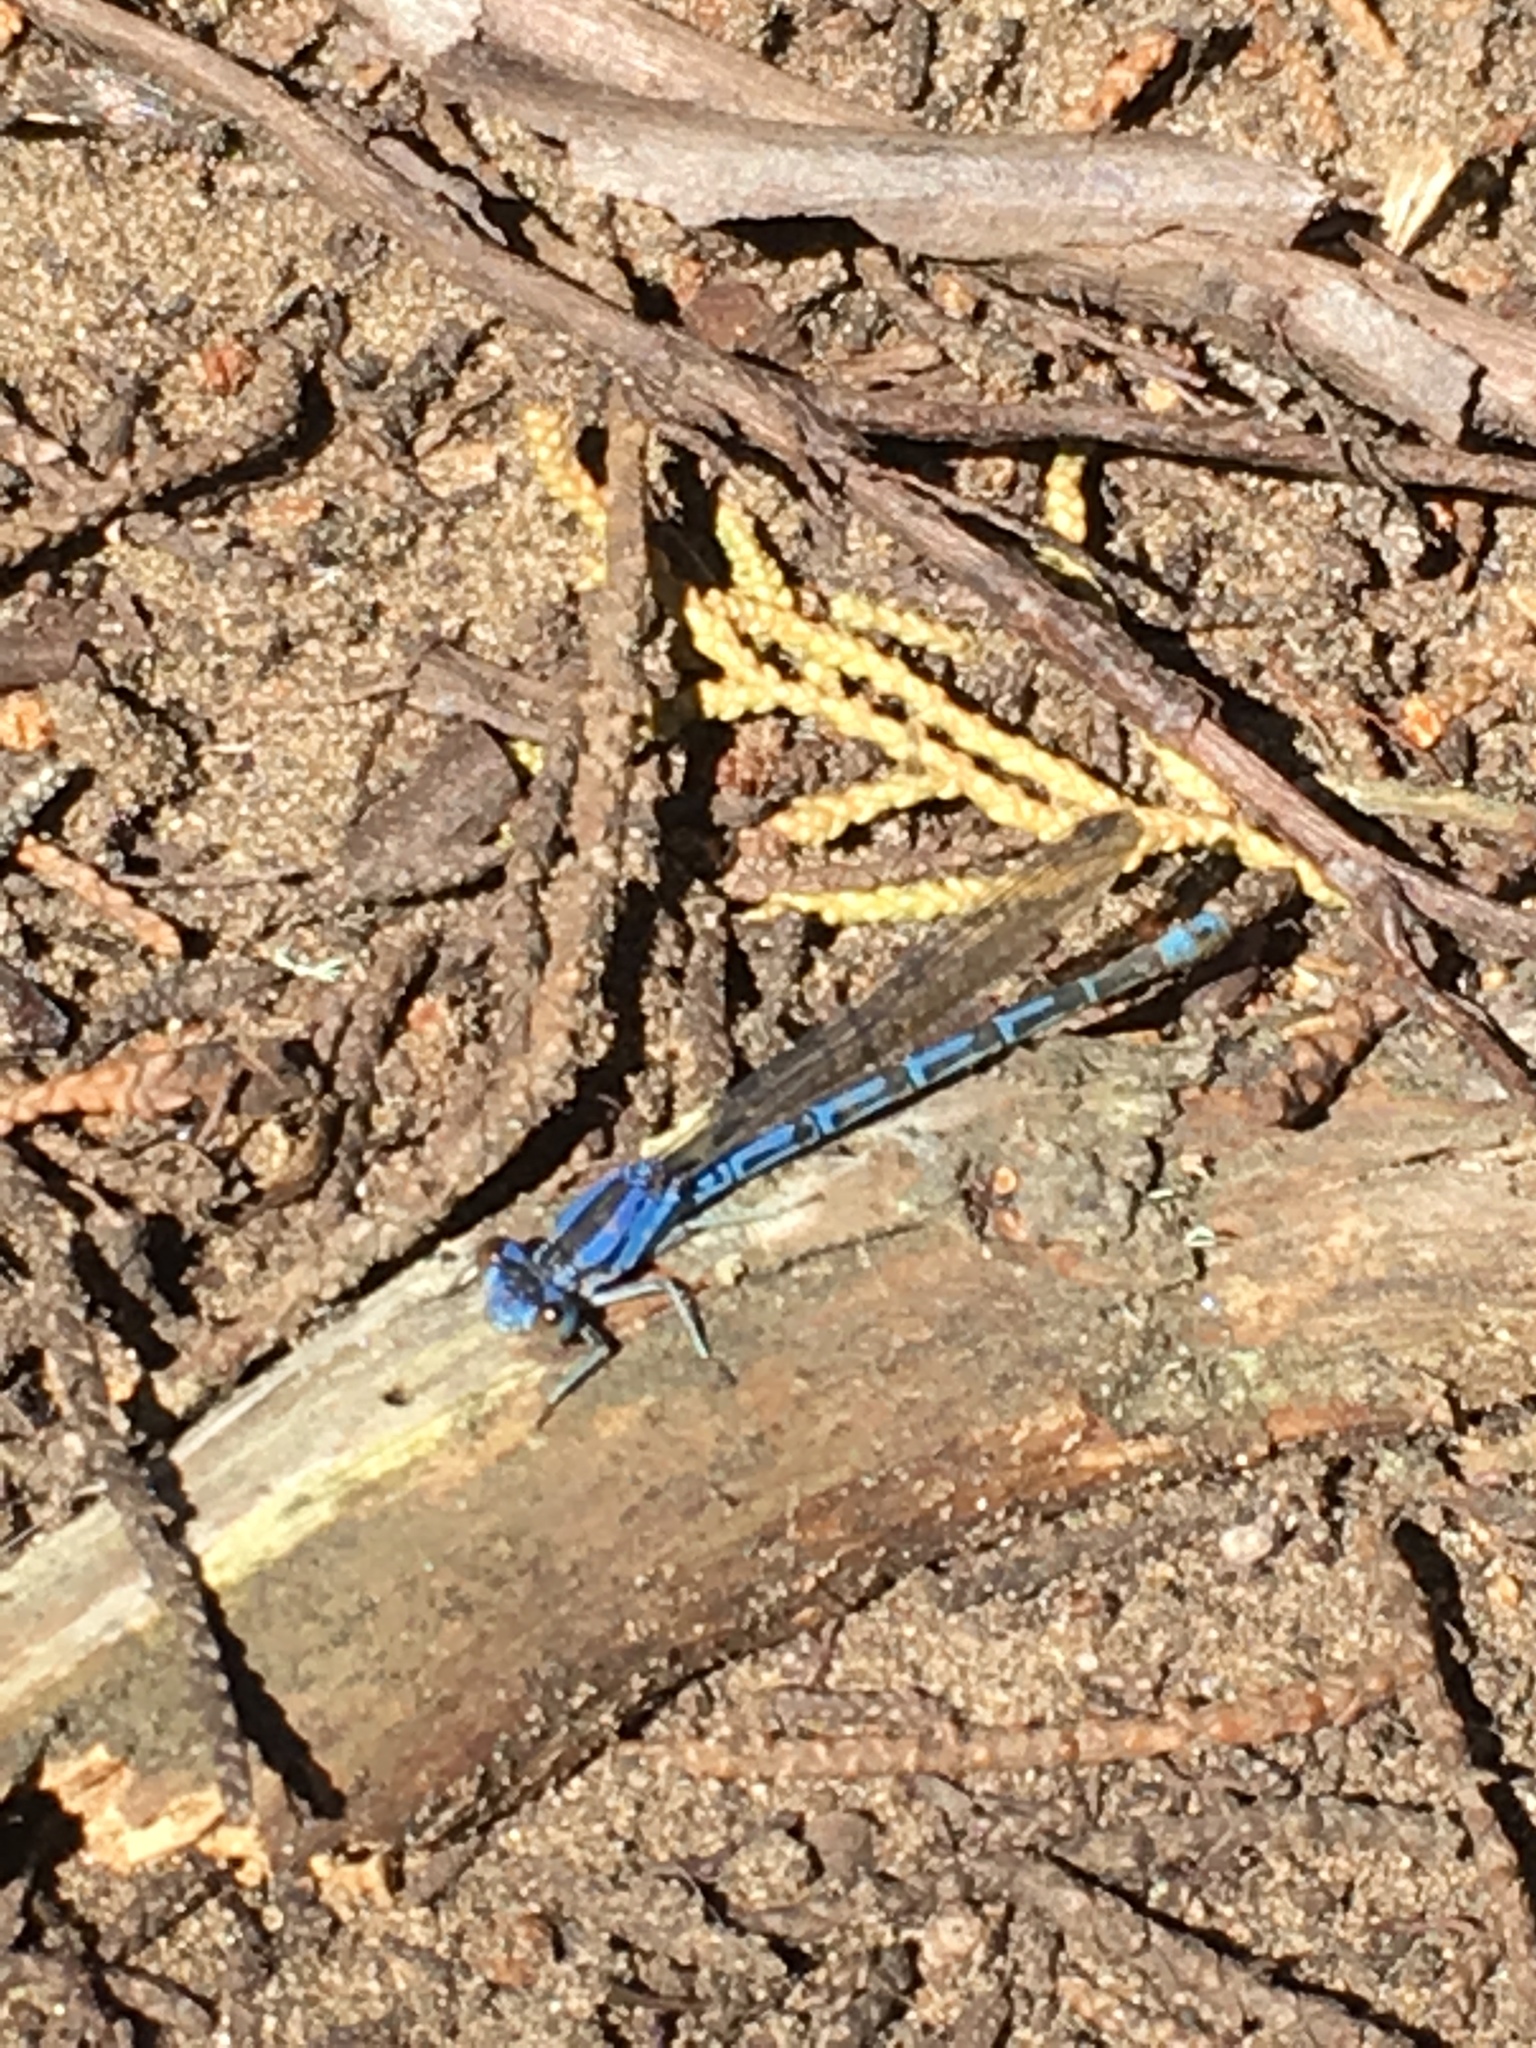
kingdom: Animalia
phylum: Arthropoda
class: Insecta
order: Odonata
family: Coenagrionidae
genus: Argia
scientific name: Argia vivida
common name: Vivid dancer
